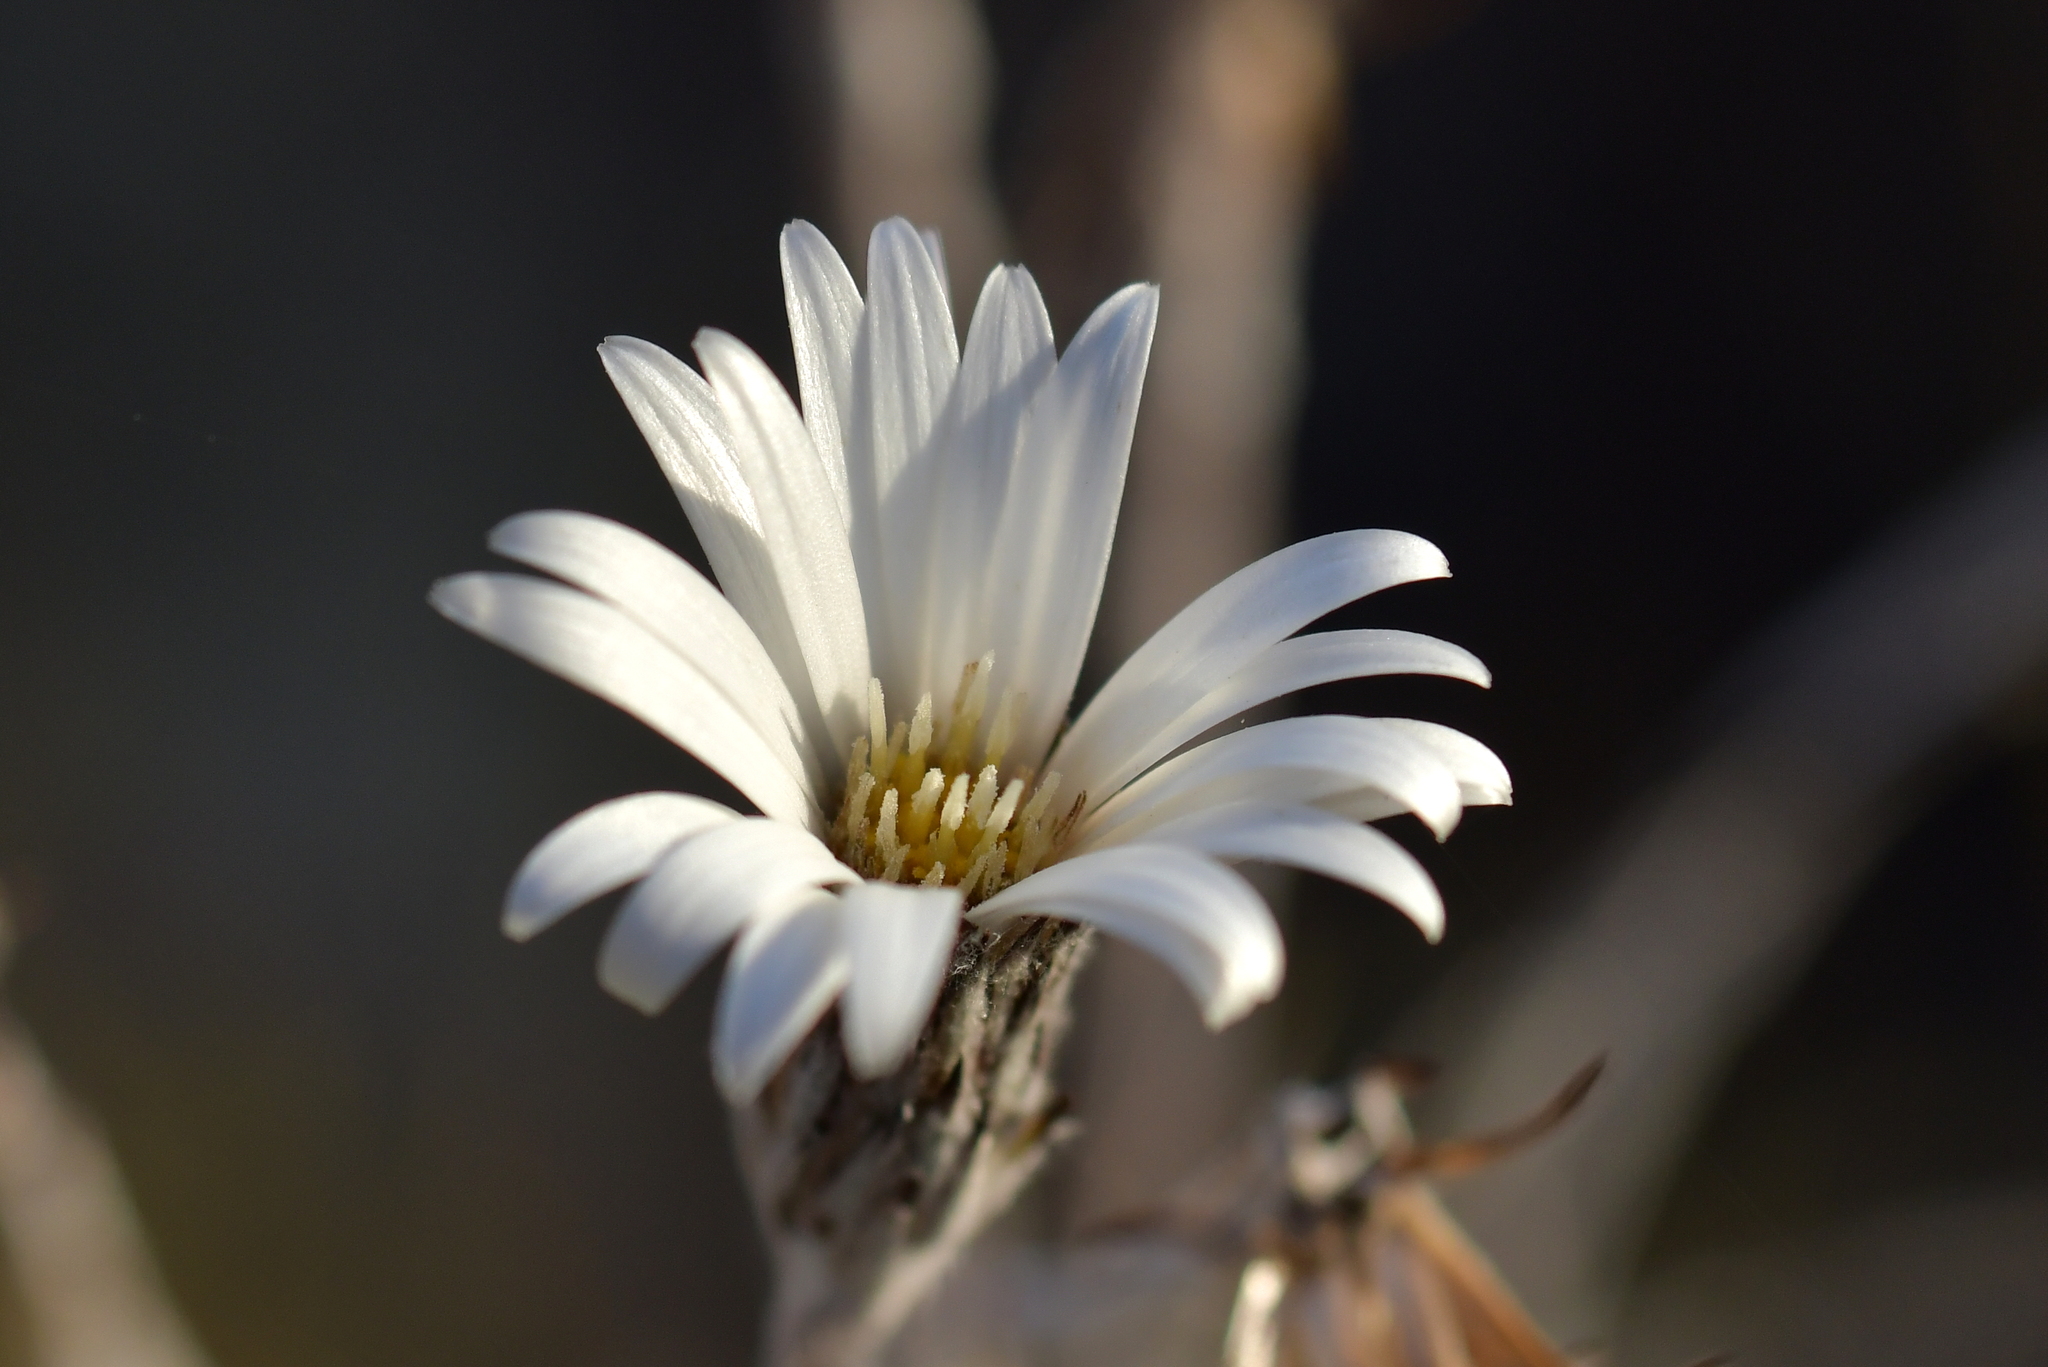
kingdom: Plantae
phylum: Tracheophyta
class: Magnoliopsida
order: Asterales
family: Asteraceae
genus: Celmisia
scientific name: Celmisia gracilenta
